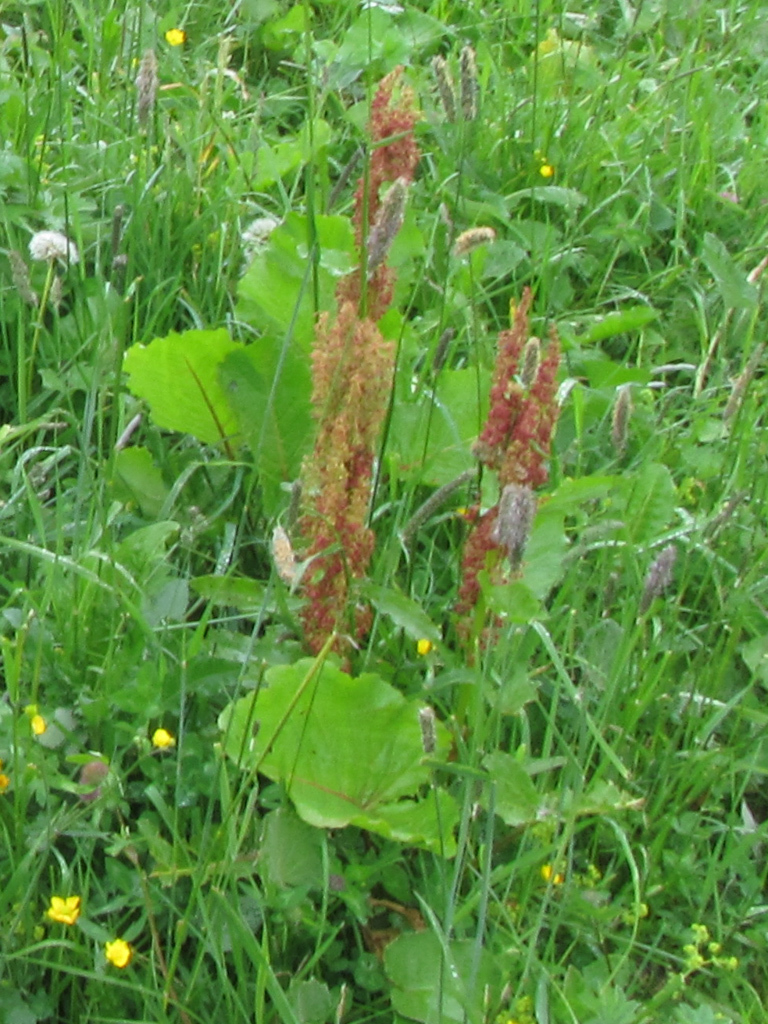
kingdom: Plantae
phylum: Tracheophyta
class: Magnoliopsida
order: Caryophyllales
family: Polygonaceae
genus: Rumex
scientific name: Rumex alpinus
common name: Alpine dock
